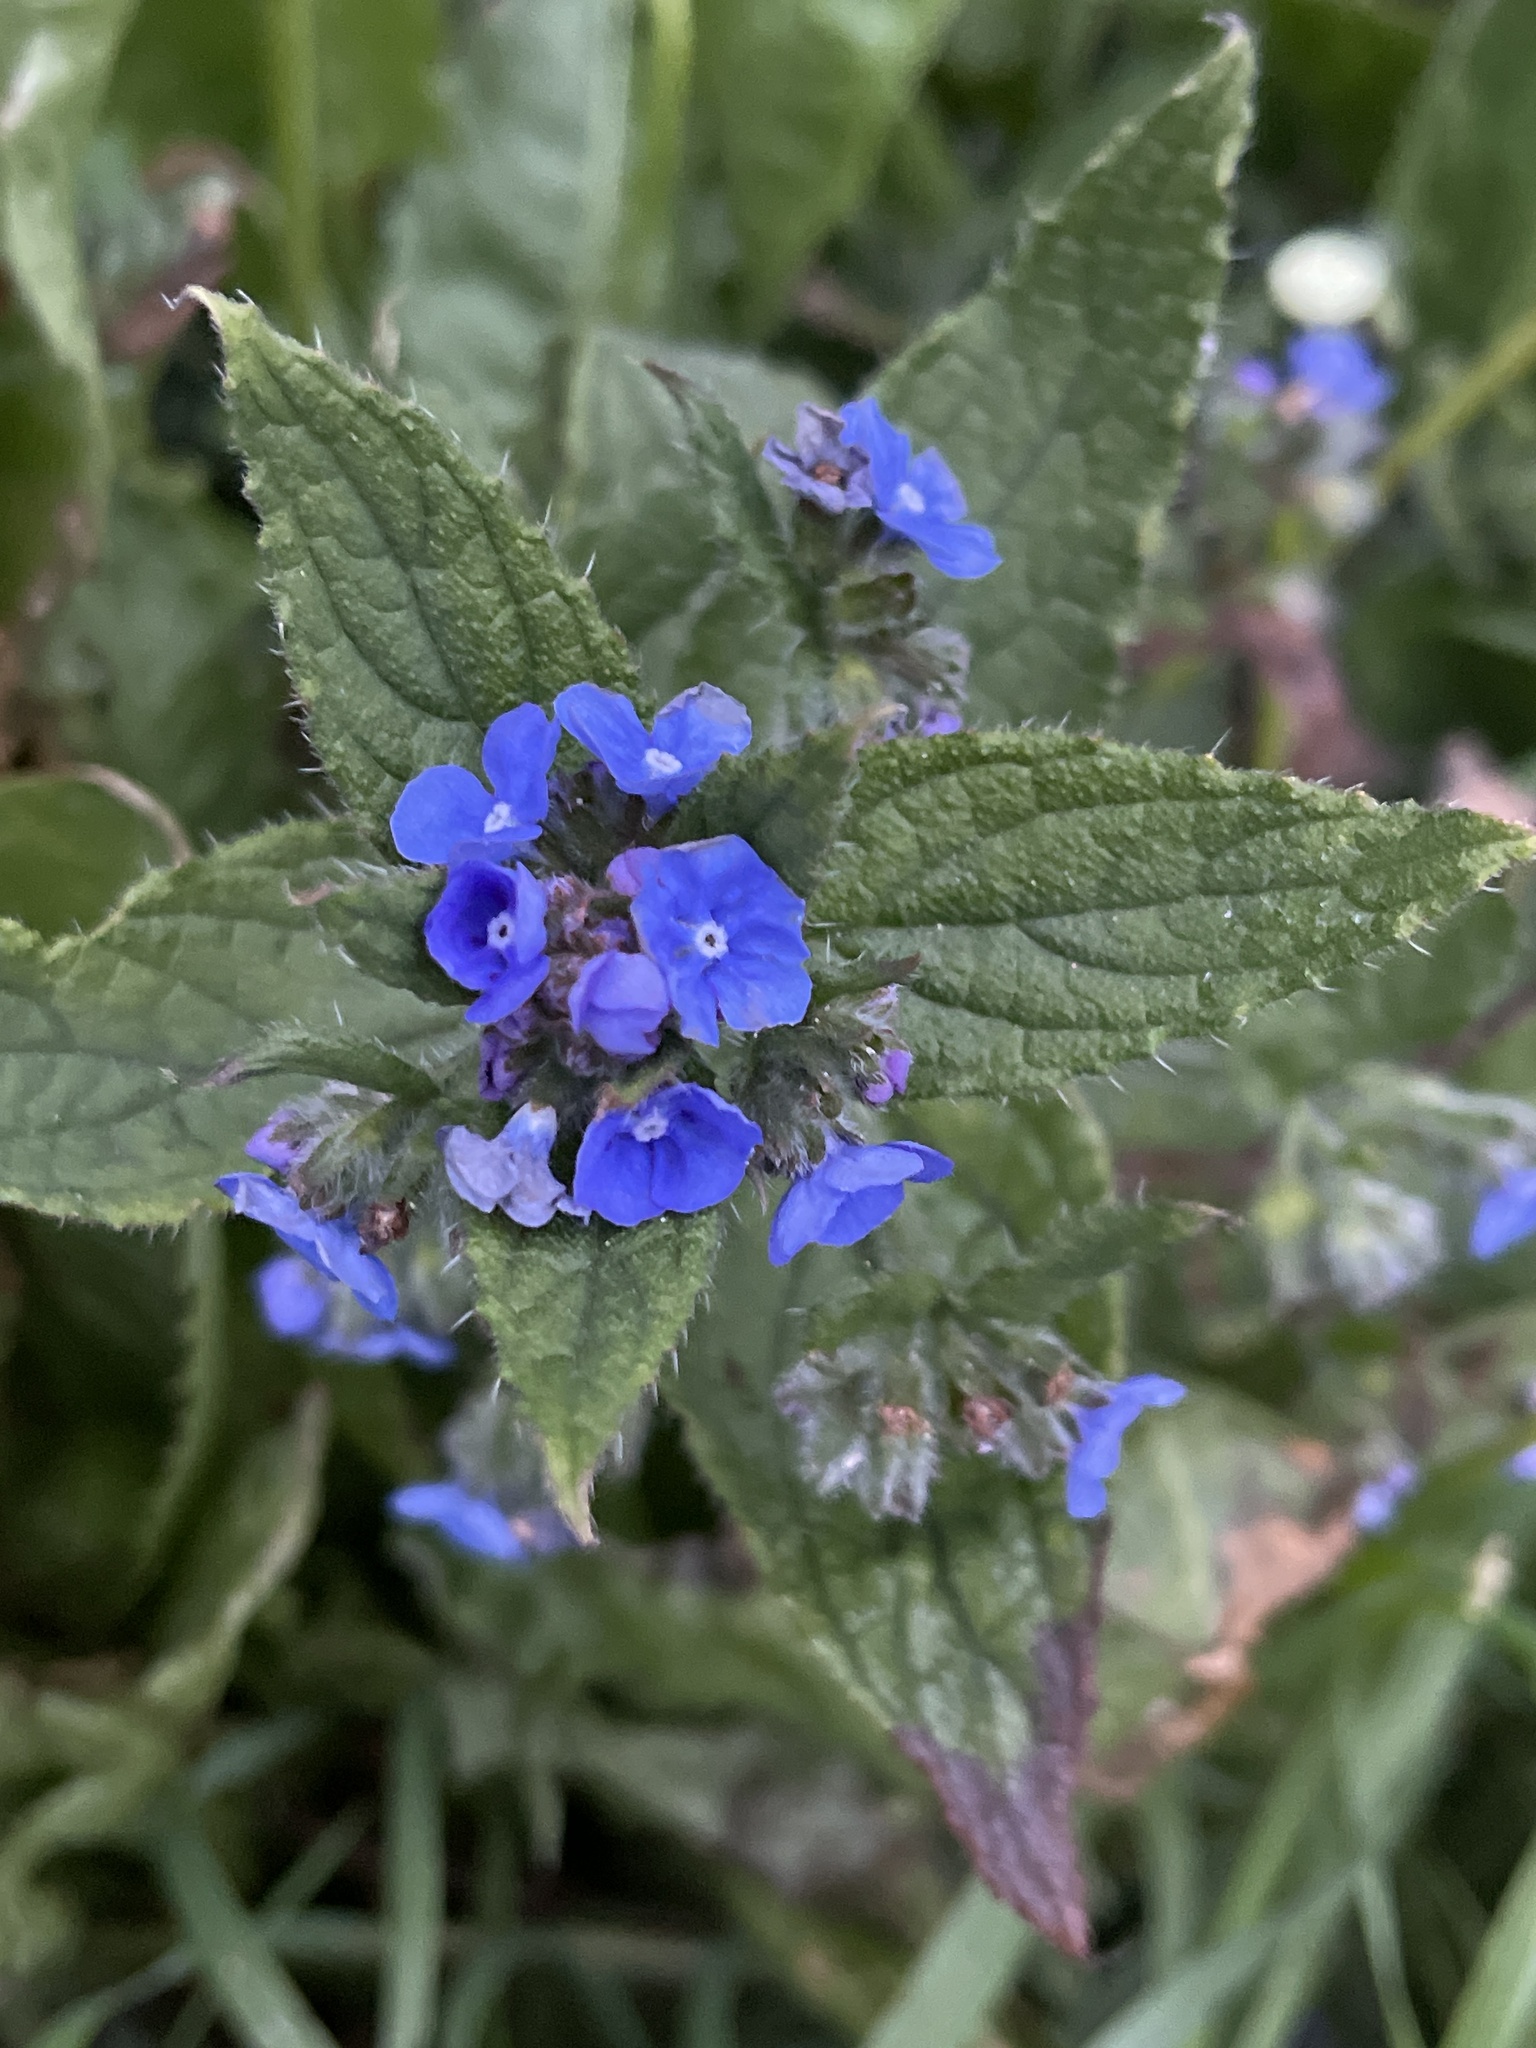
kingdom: Plantae
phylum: Tracheophyta
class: Magnoliopsida
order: Boraginales
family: Boraginaceae
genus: Pentaglottis
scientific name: Pentaglottis sempervirens
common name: Green alkanet
